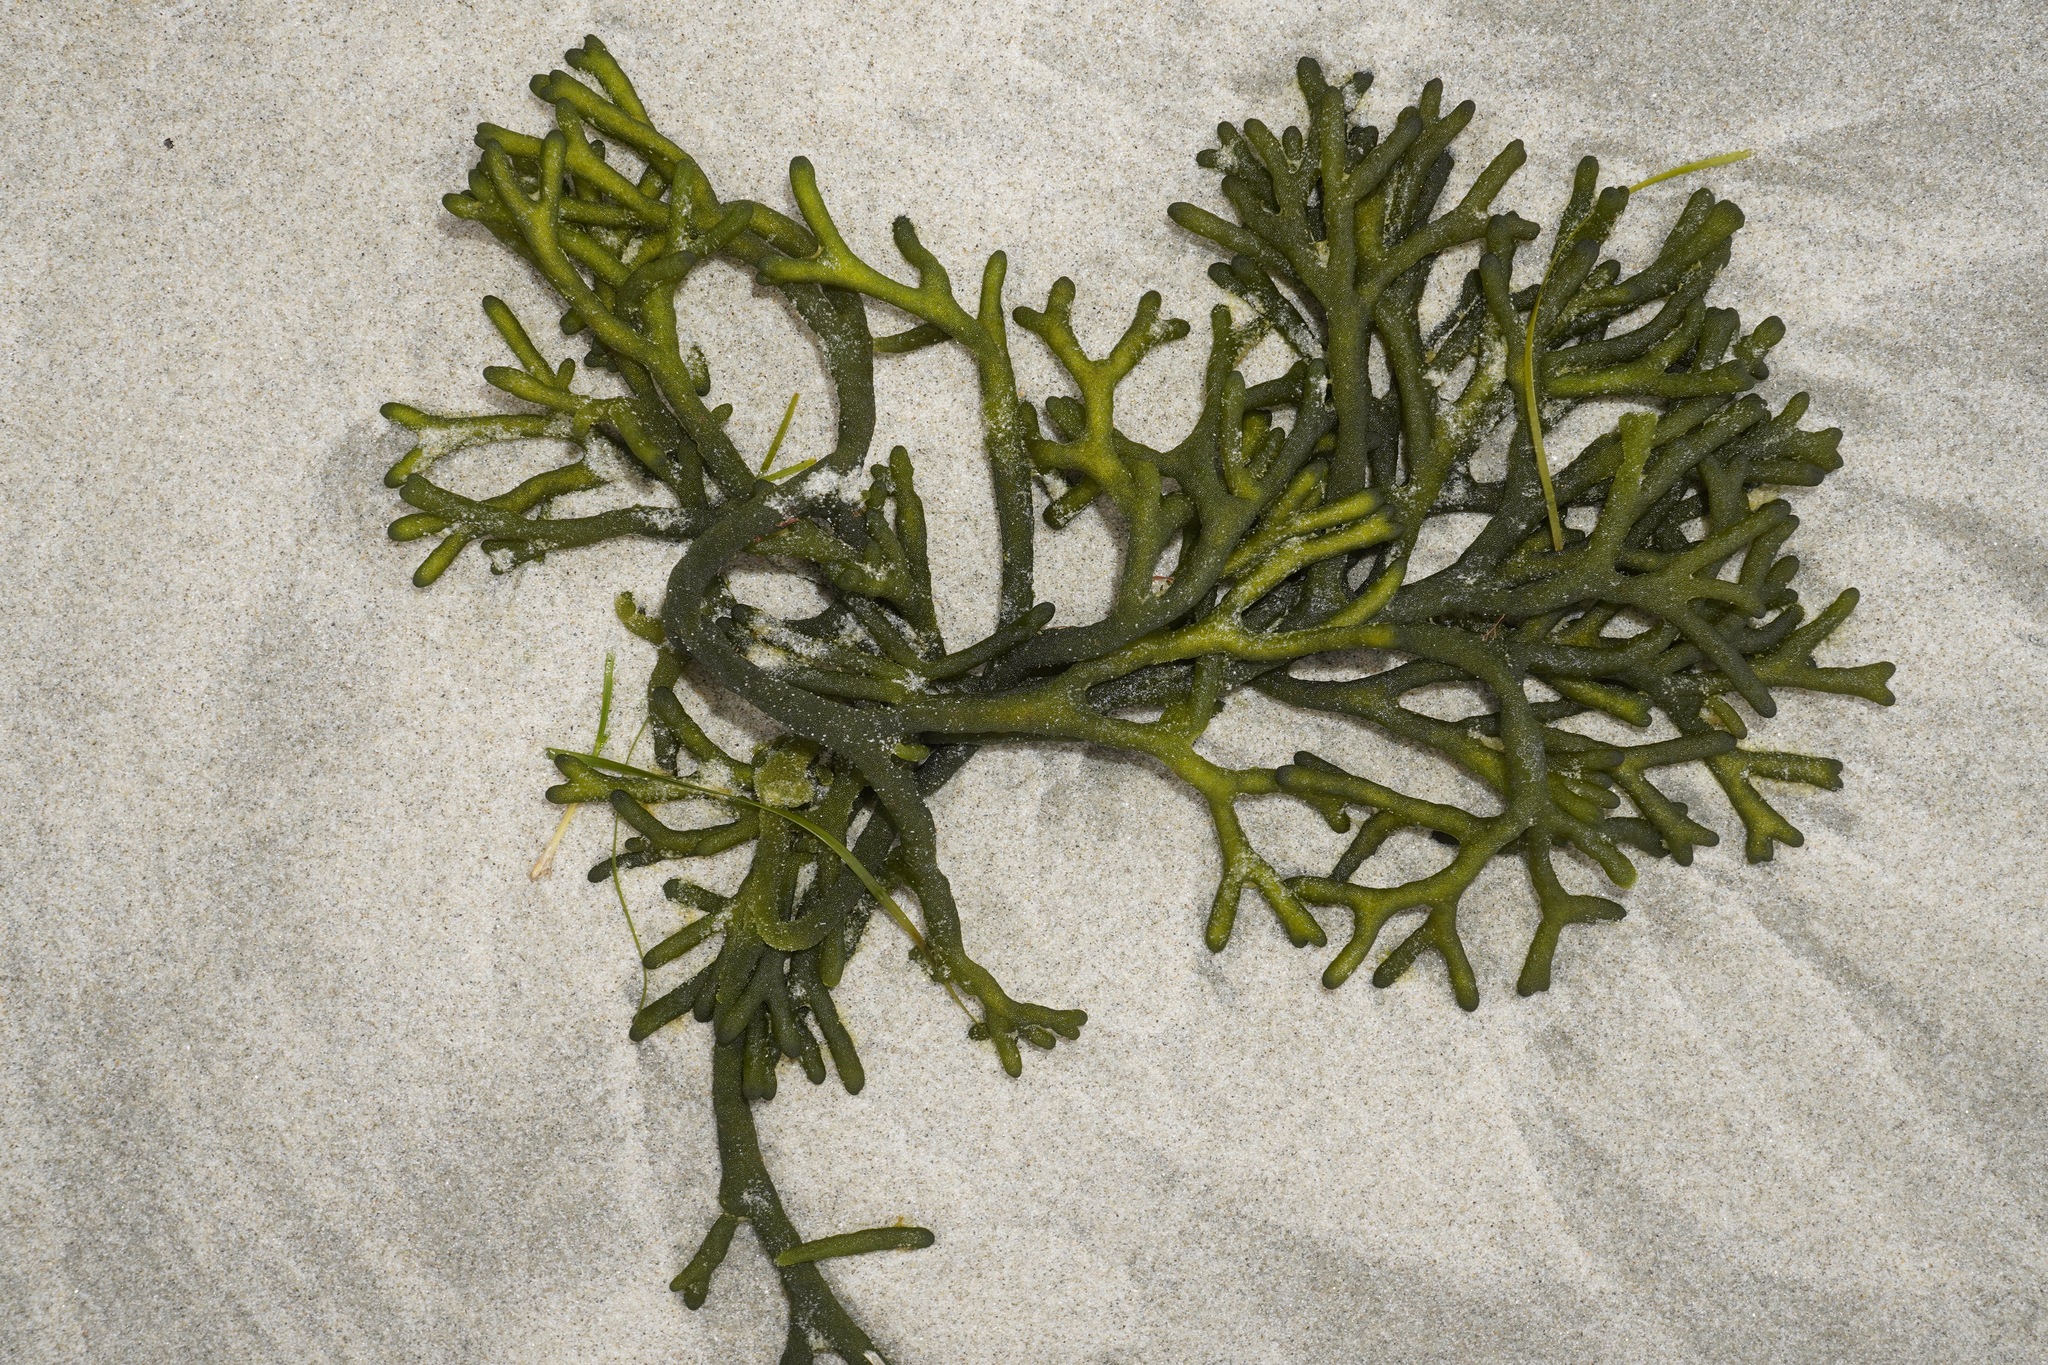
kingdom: Plantae
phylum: Chlorophyta
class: Ulvophyceae
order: Bryopsidales
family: Codiaceae
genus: Codium
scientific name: Codium fragile
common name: Dead man's fingers
